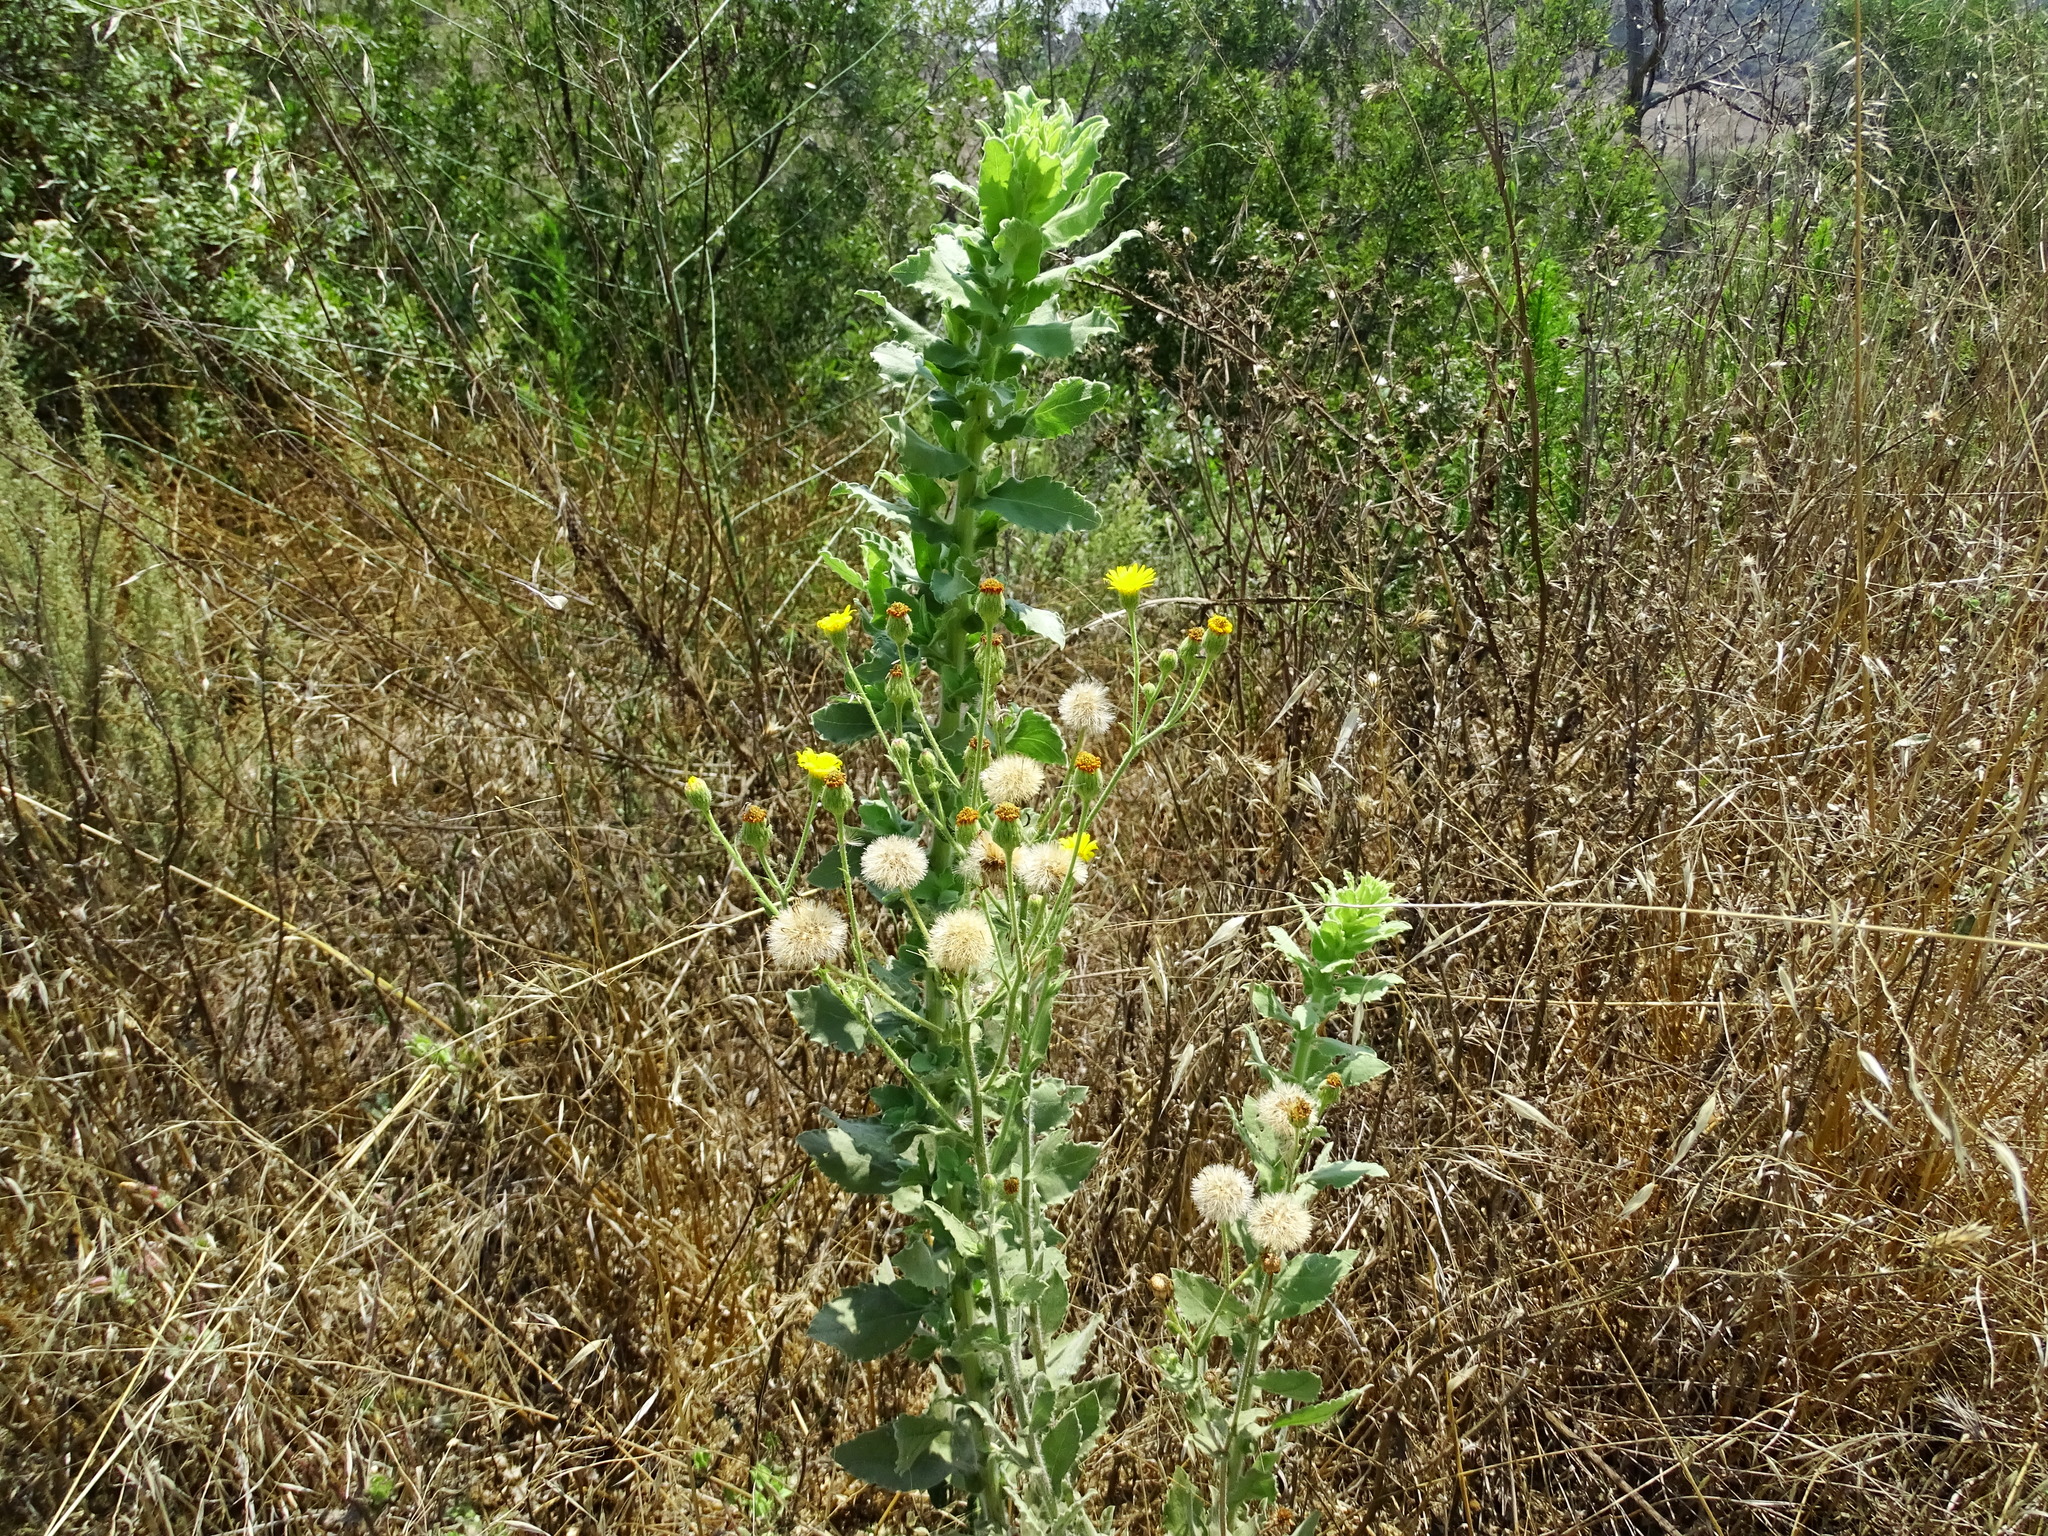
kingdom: Plantae
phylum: Tracheophyta
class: Magnoliopsida
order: Asterales
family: Asteraceae
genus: Heterotheca
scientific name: Heterotheca grandiflora
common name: Telegraphweed
